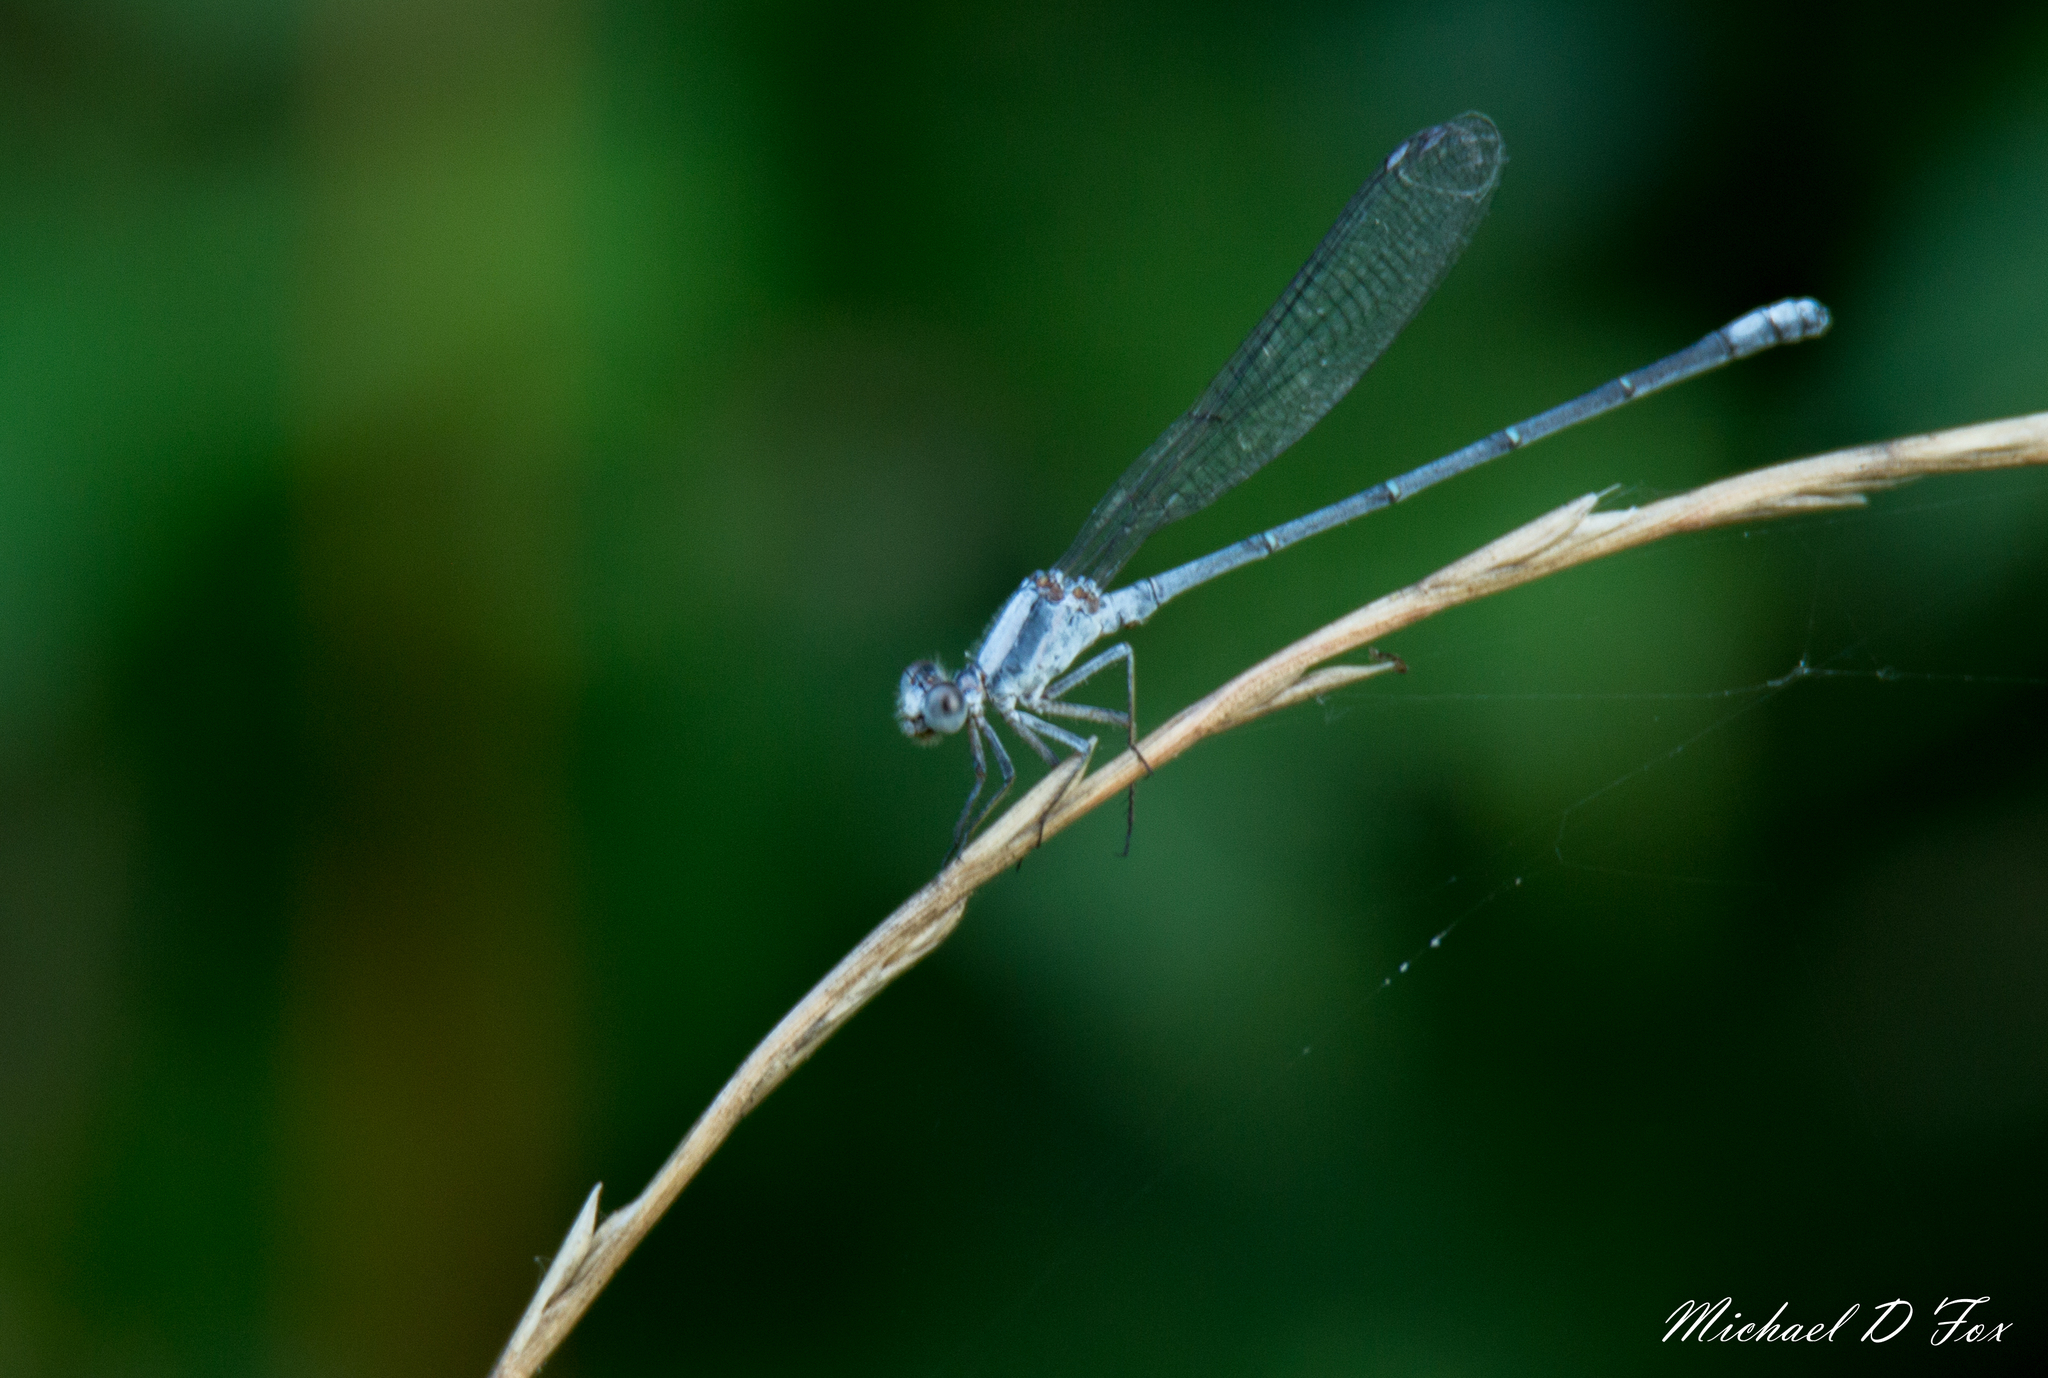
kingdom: Animalia
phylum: Arthropoda
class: Insecta
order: Odonata
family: Coenagrionidae
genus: Argia
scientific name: Argia moesta
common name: Powdered dancer
